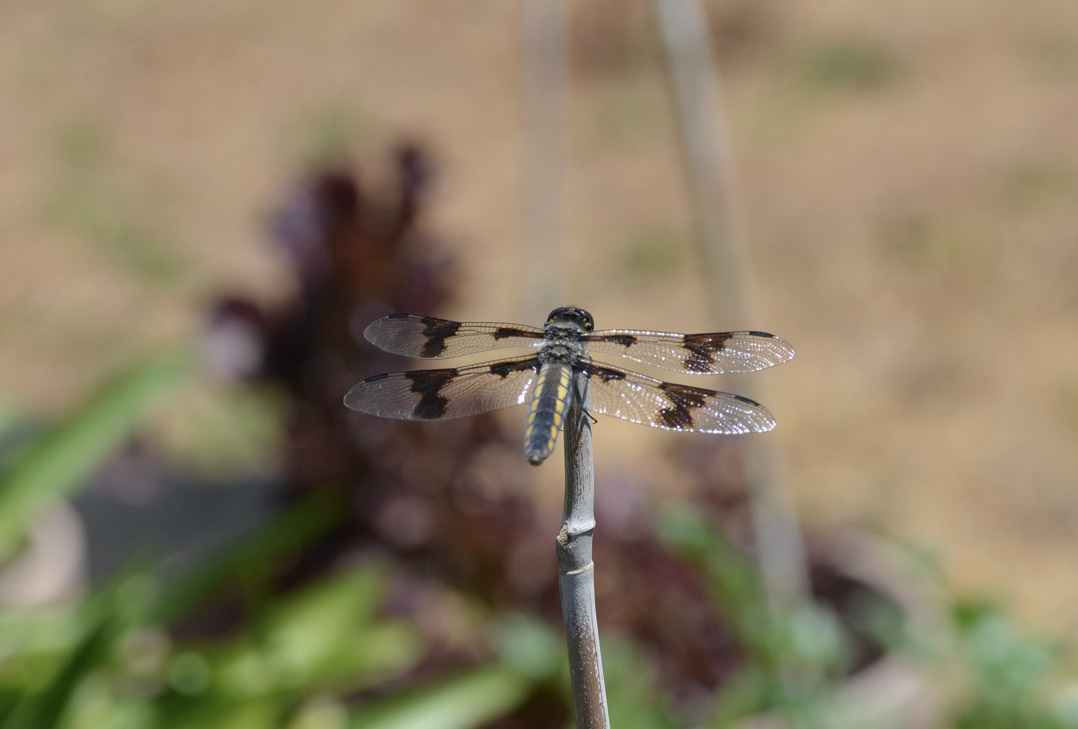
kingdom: Animalia
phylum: Arthropoda
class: Insecta
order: Odonata
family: Libellulidae
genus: Libellula
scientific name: Libellula forensis
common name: Eight-spotted skimmer
